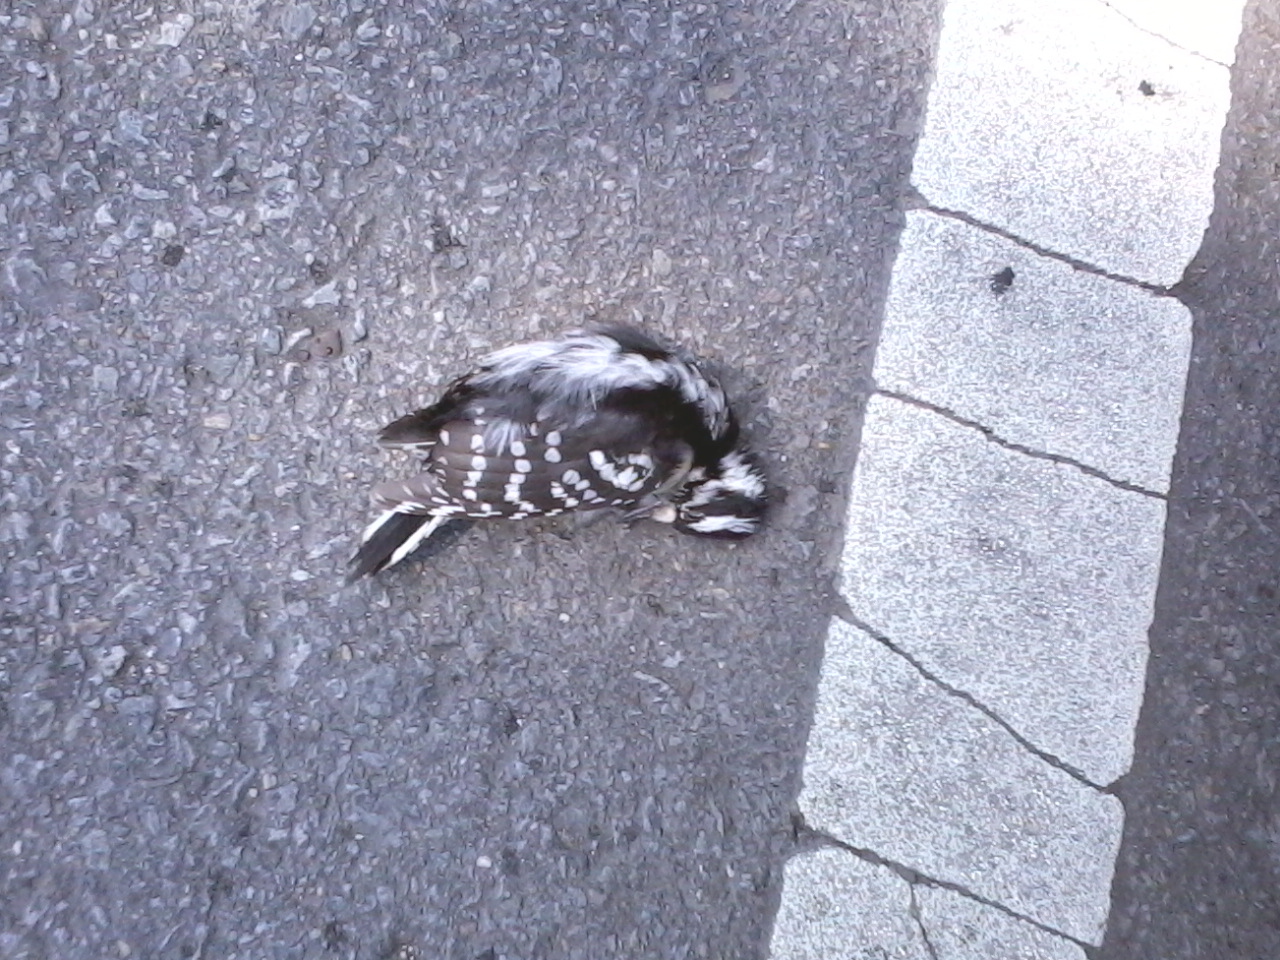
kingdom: Animalia
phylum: Chordata
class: Aves
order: Piciformes
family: Picidae
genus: Dryobates
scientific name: Dryobates pubescens
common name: Downy woodpecker
